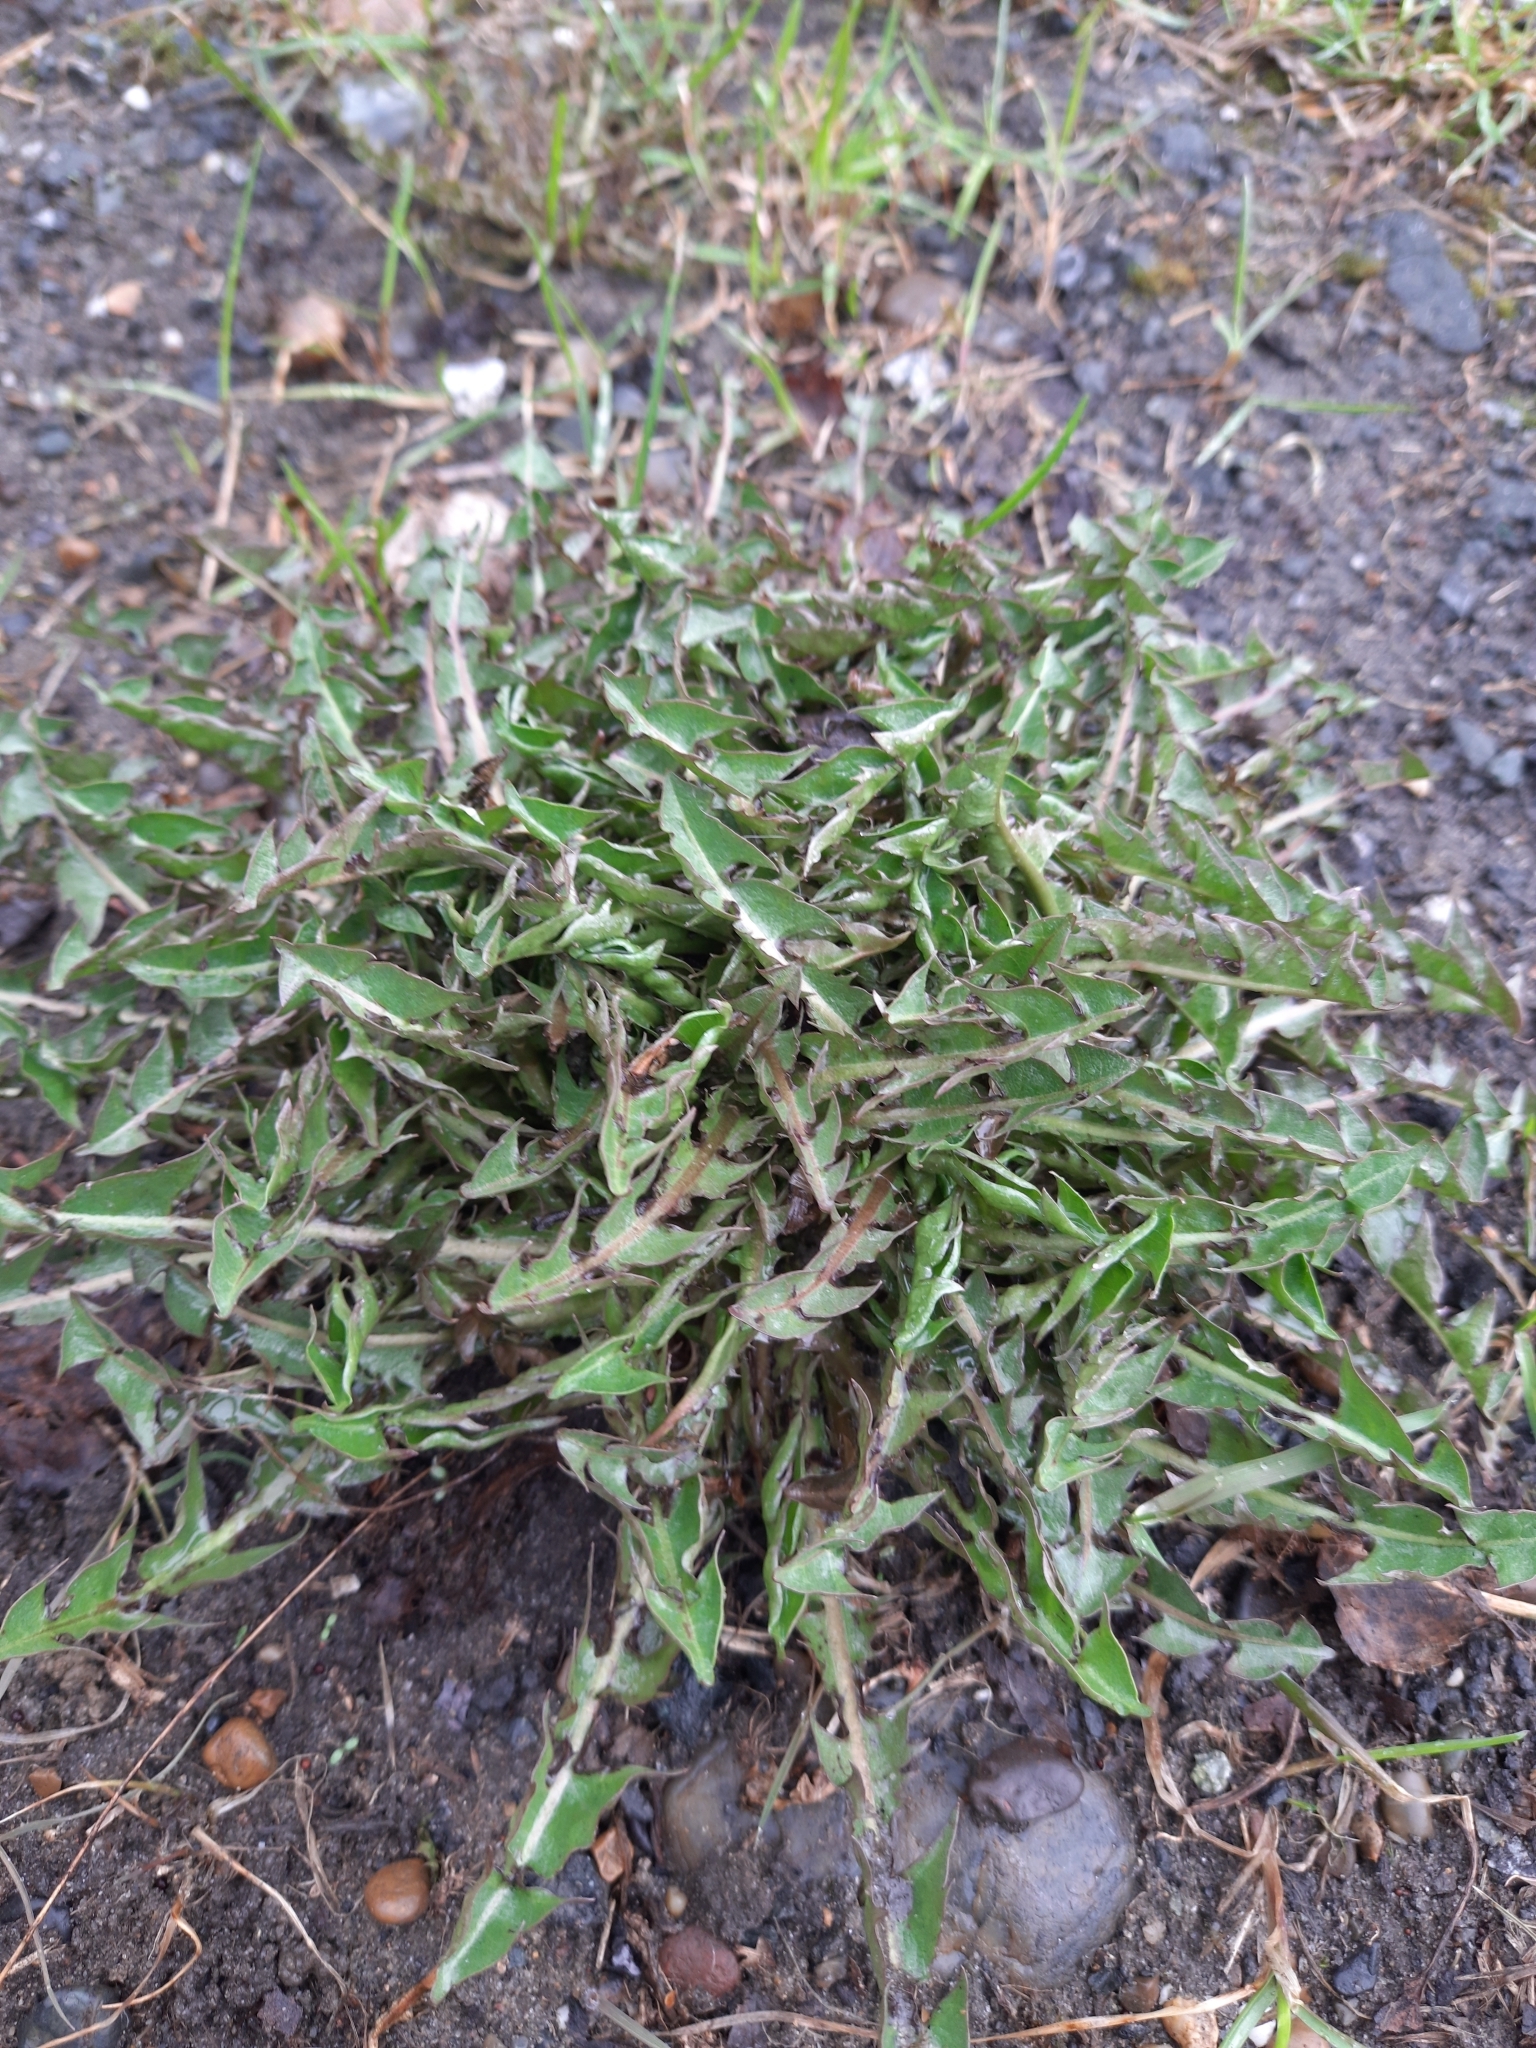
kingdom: Plantae
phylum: Tracheophyta
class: Magnoliopsida
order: Asterales
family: Asteraceae
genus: Taraxacum
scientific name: Taraxacum officinale
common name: Common dandelion
